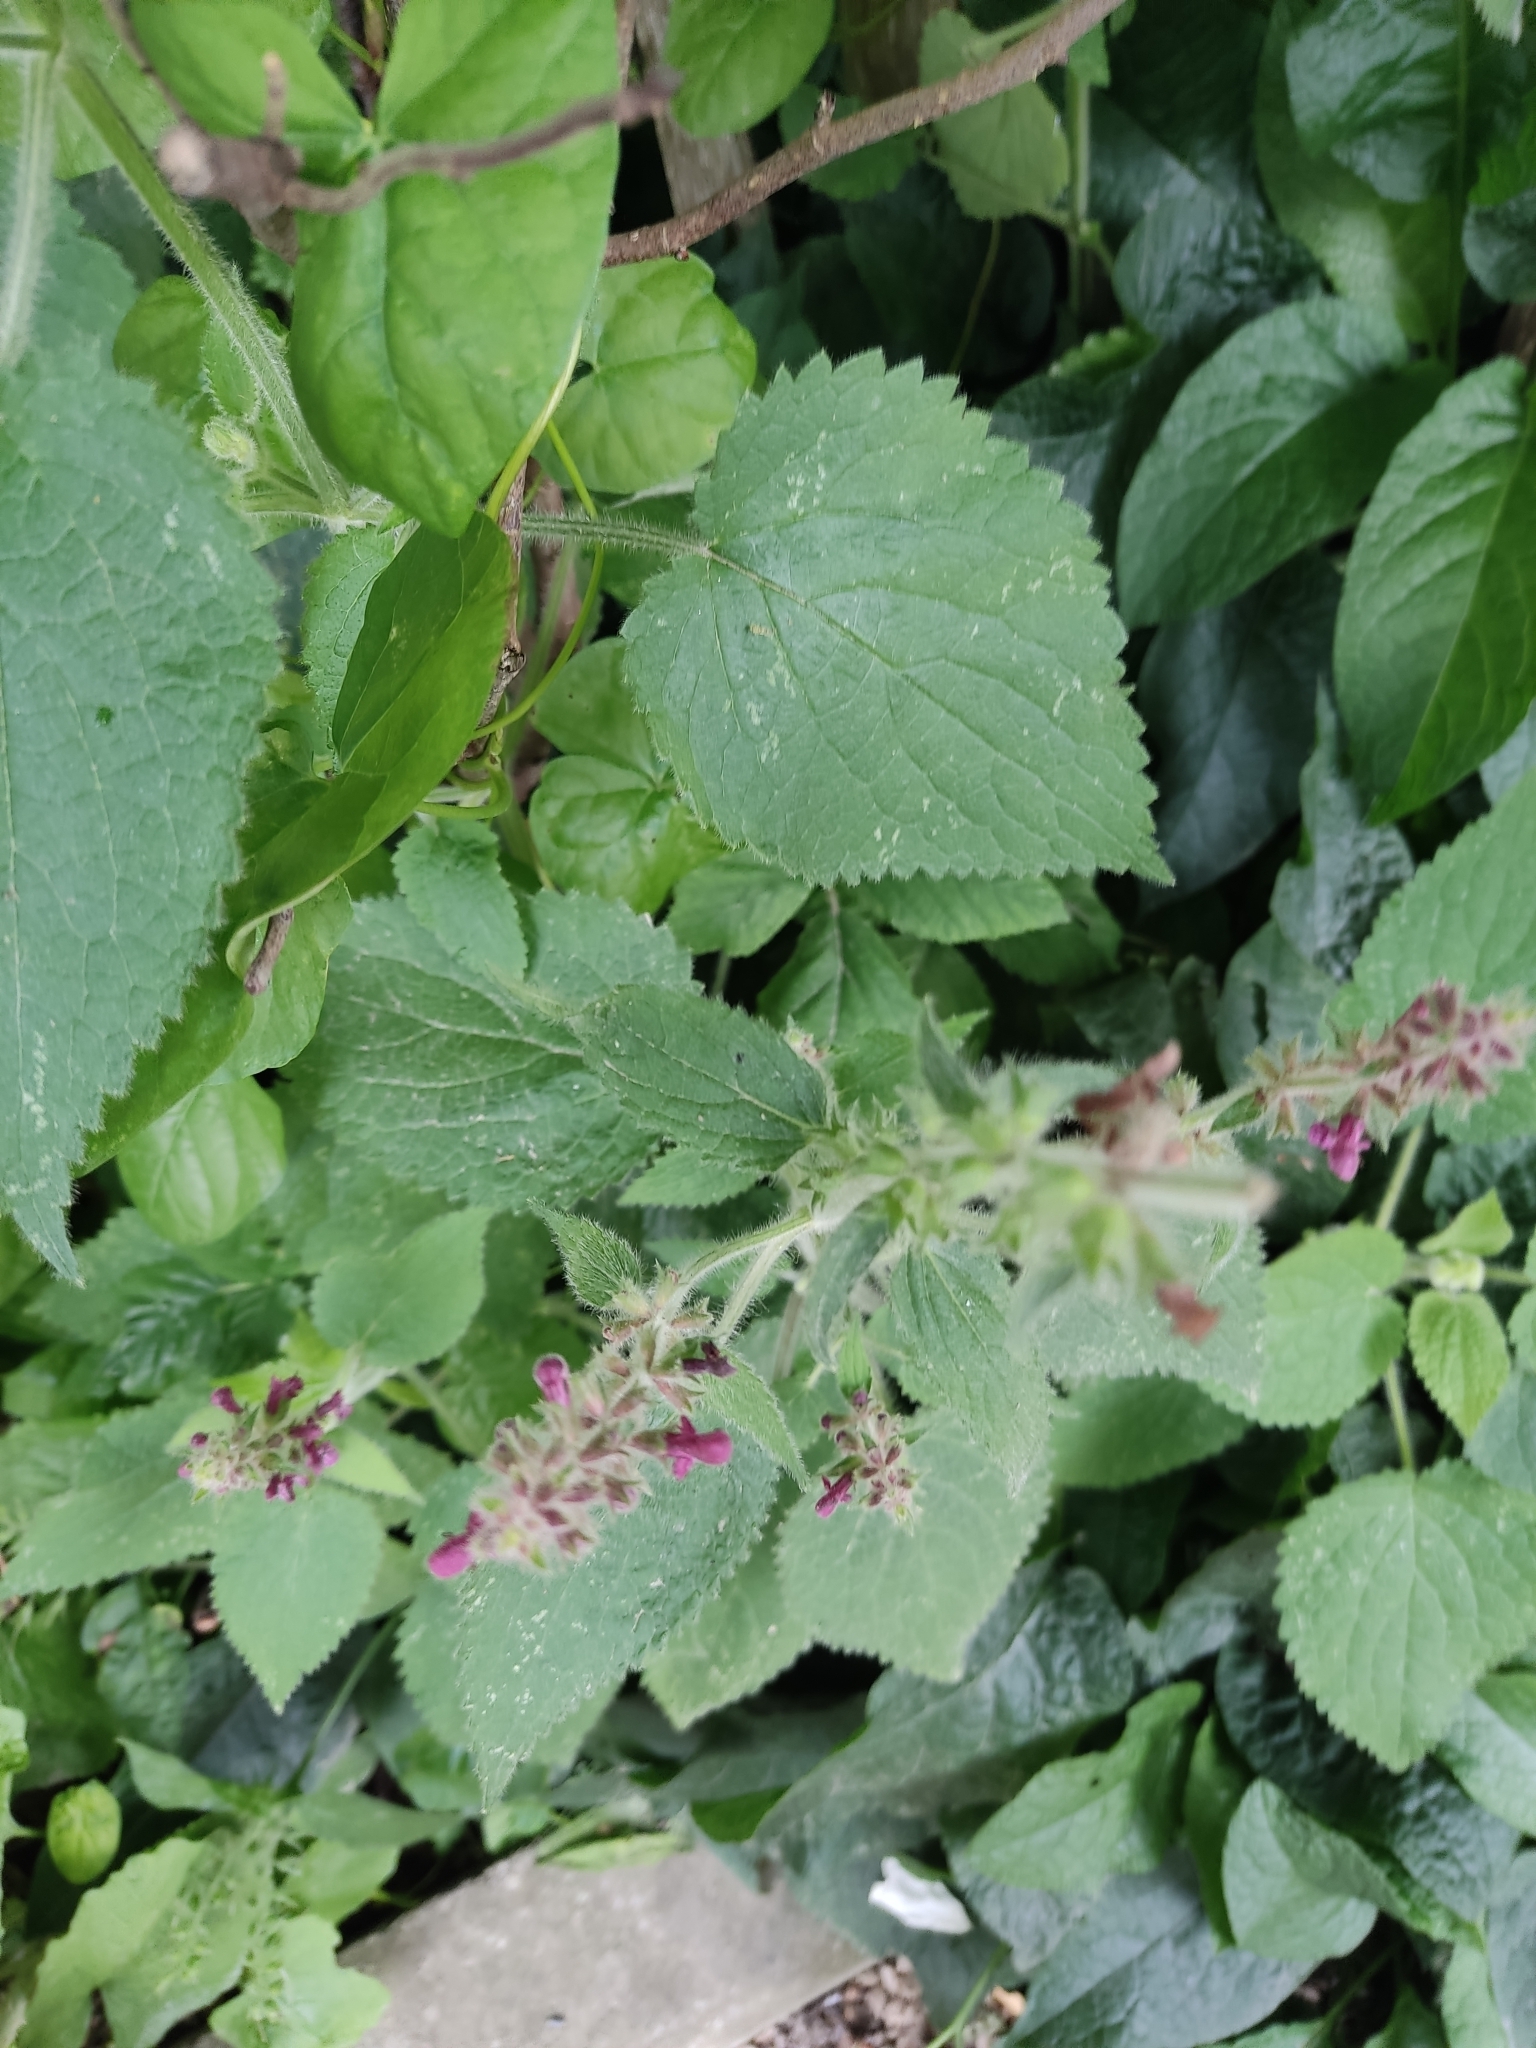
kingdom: Plantae
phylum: Tracheophyta
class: Magnoliopsida
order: Lamiales
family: Lamiaceae
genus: Stachys
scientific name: Stachys sylvatica
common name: Hedge woundwort
